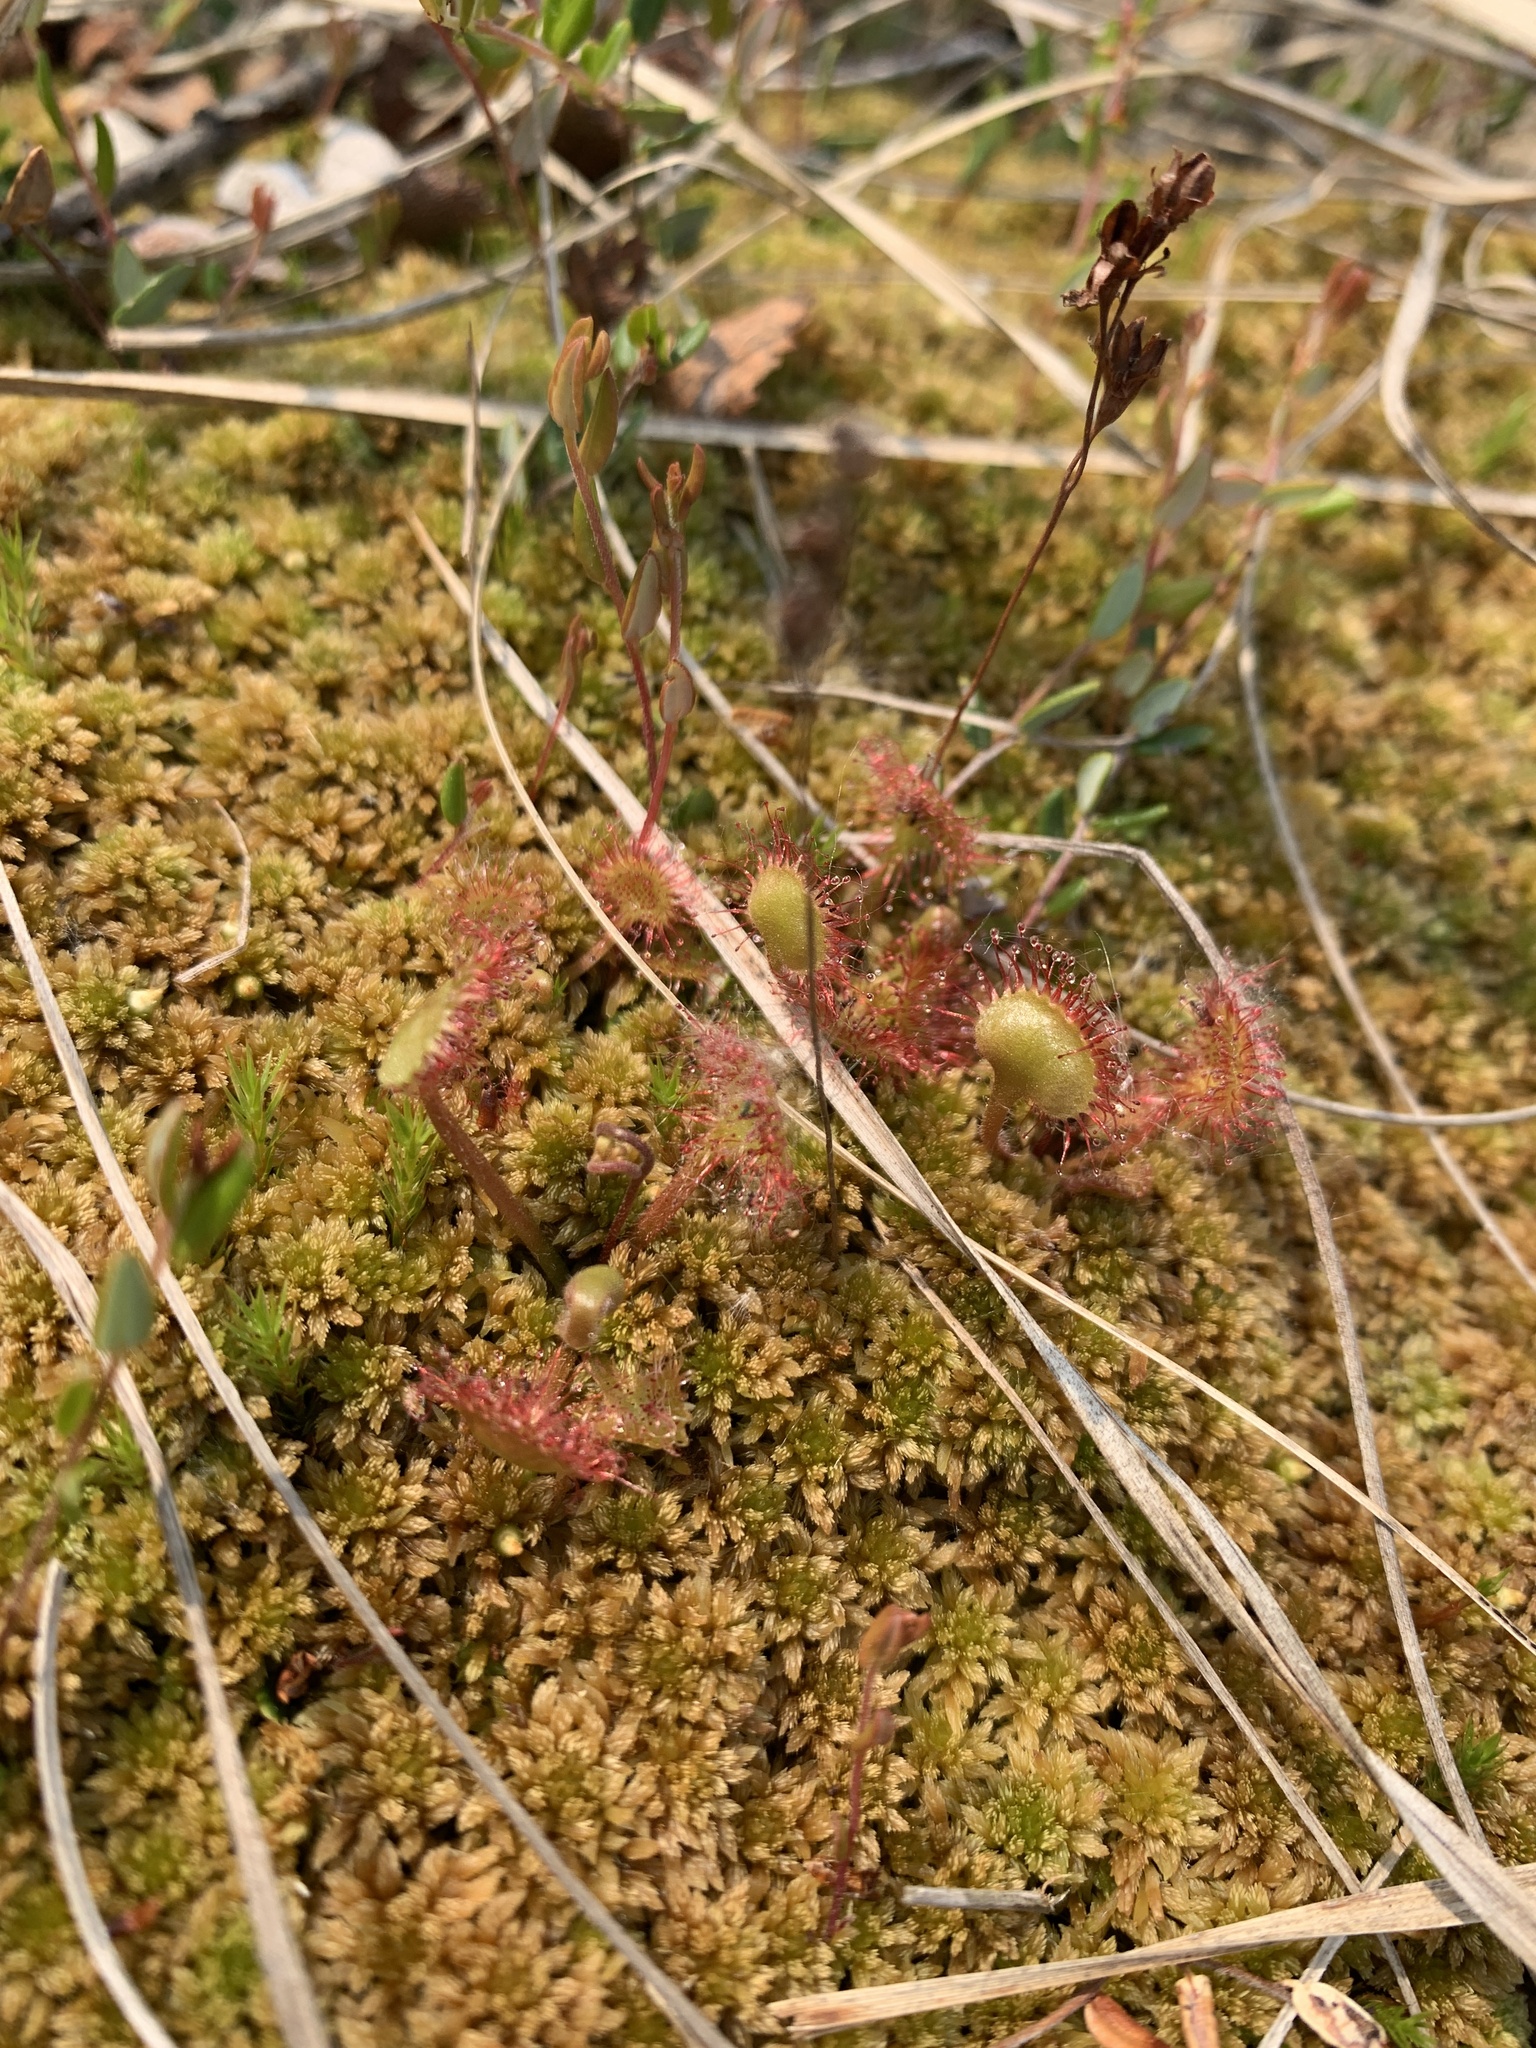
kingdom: Plantae
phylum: Tracheophyta
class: Magnoliopsida
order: Caryophyllales
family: Droseraceae
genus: Drosera
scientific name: Drosera rotundifolia
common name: Round-leaved sundew
